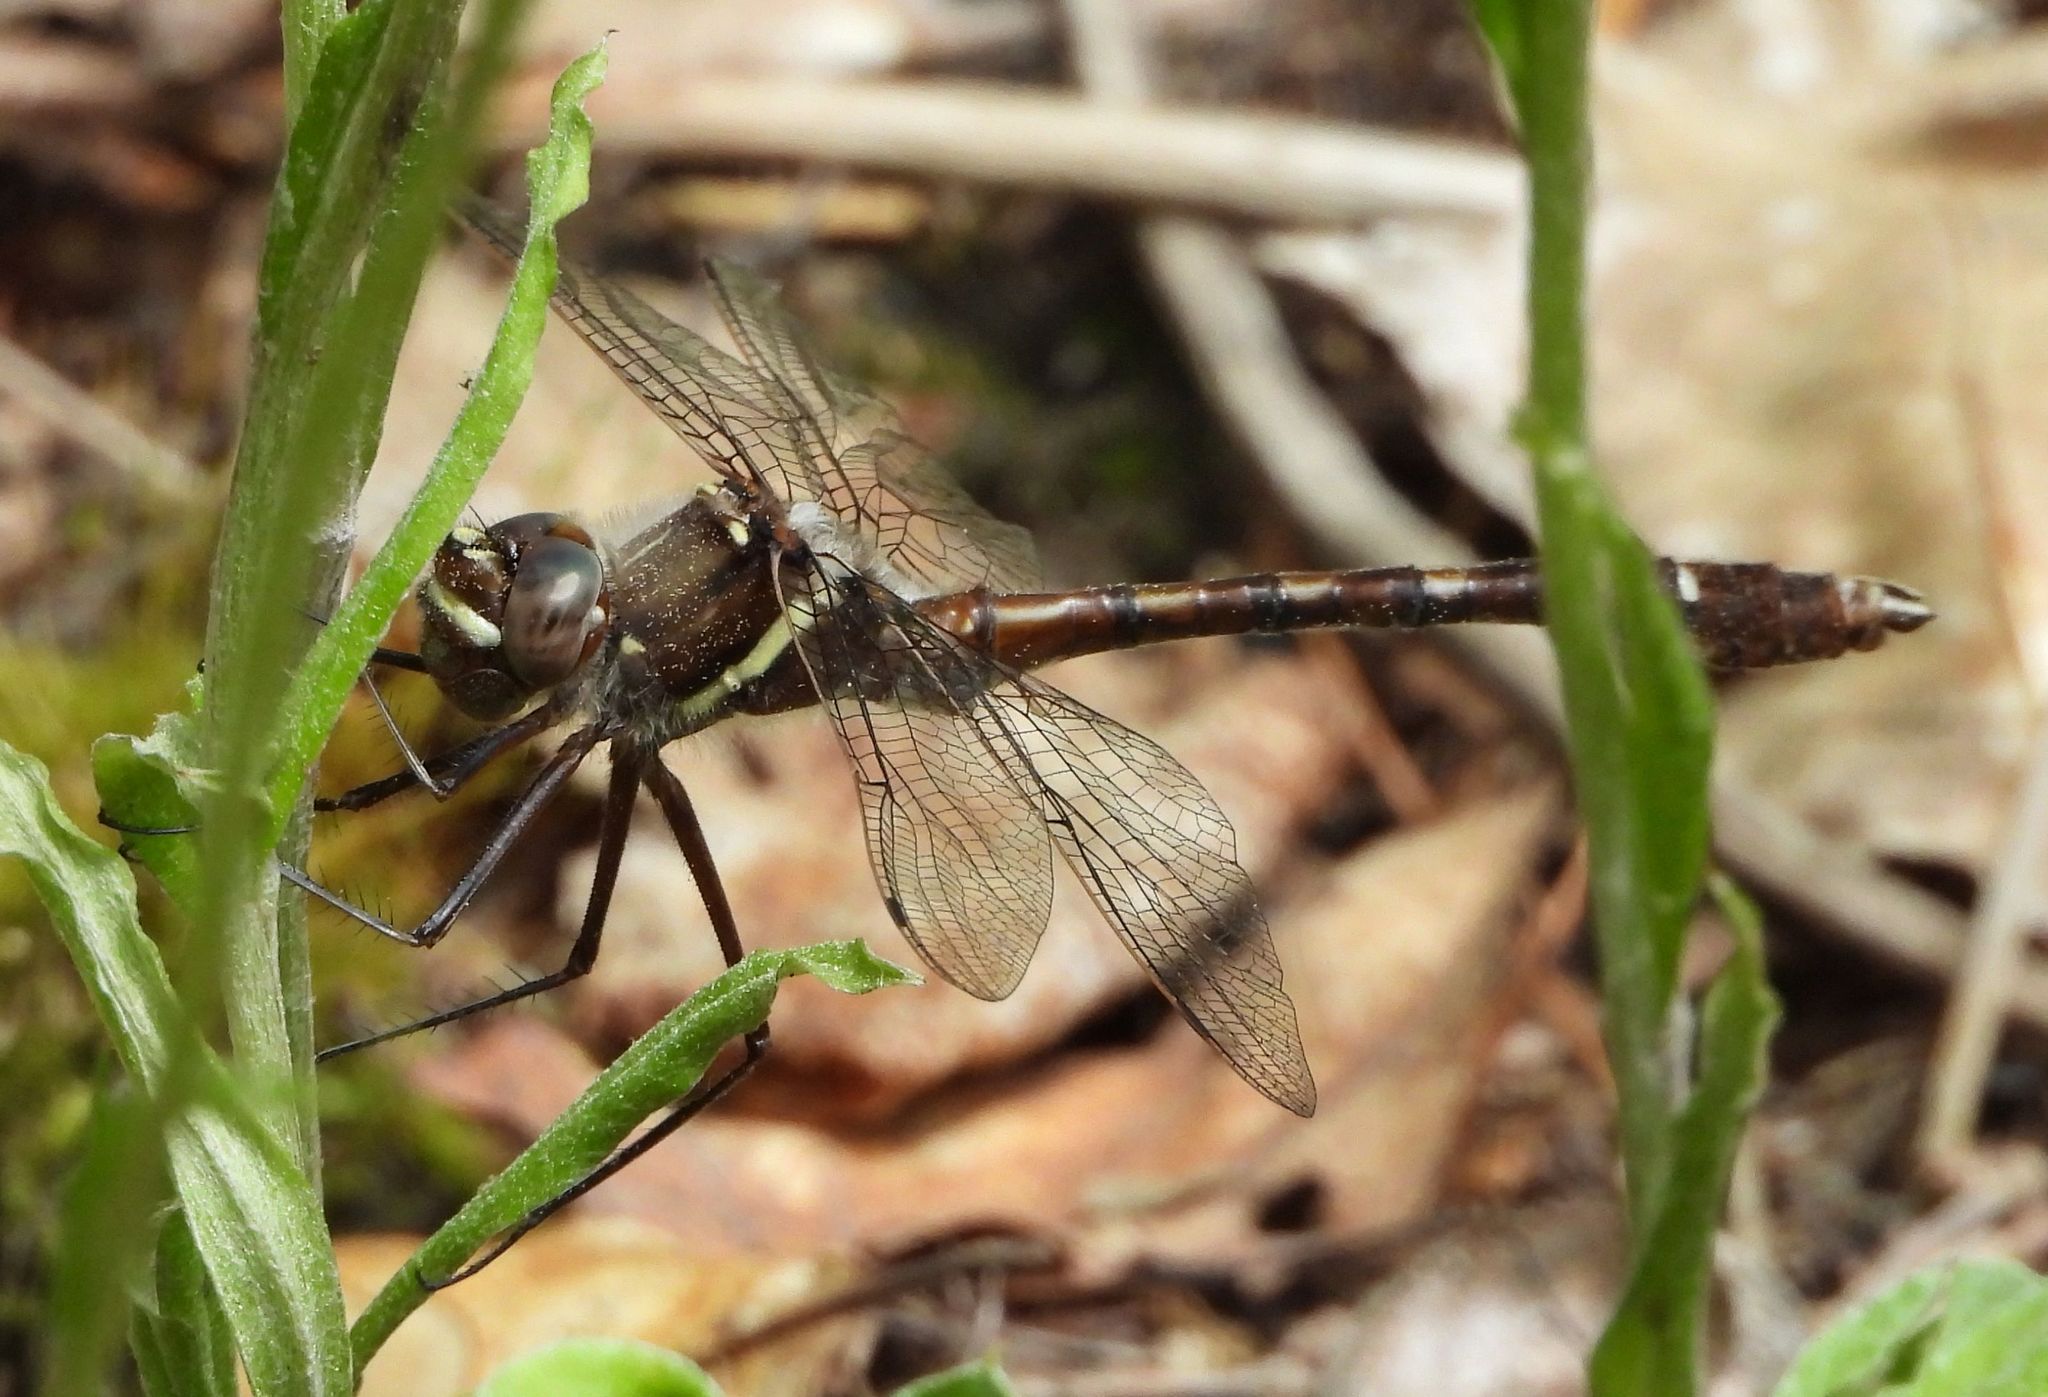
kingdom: Animalia
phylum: Arthropoda
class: Insecta
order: Odonata
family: Macromiidae
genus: Didymops
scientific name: Didymops transversa
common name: Stream cruiser
